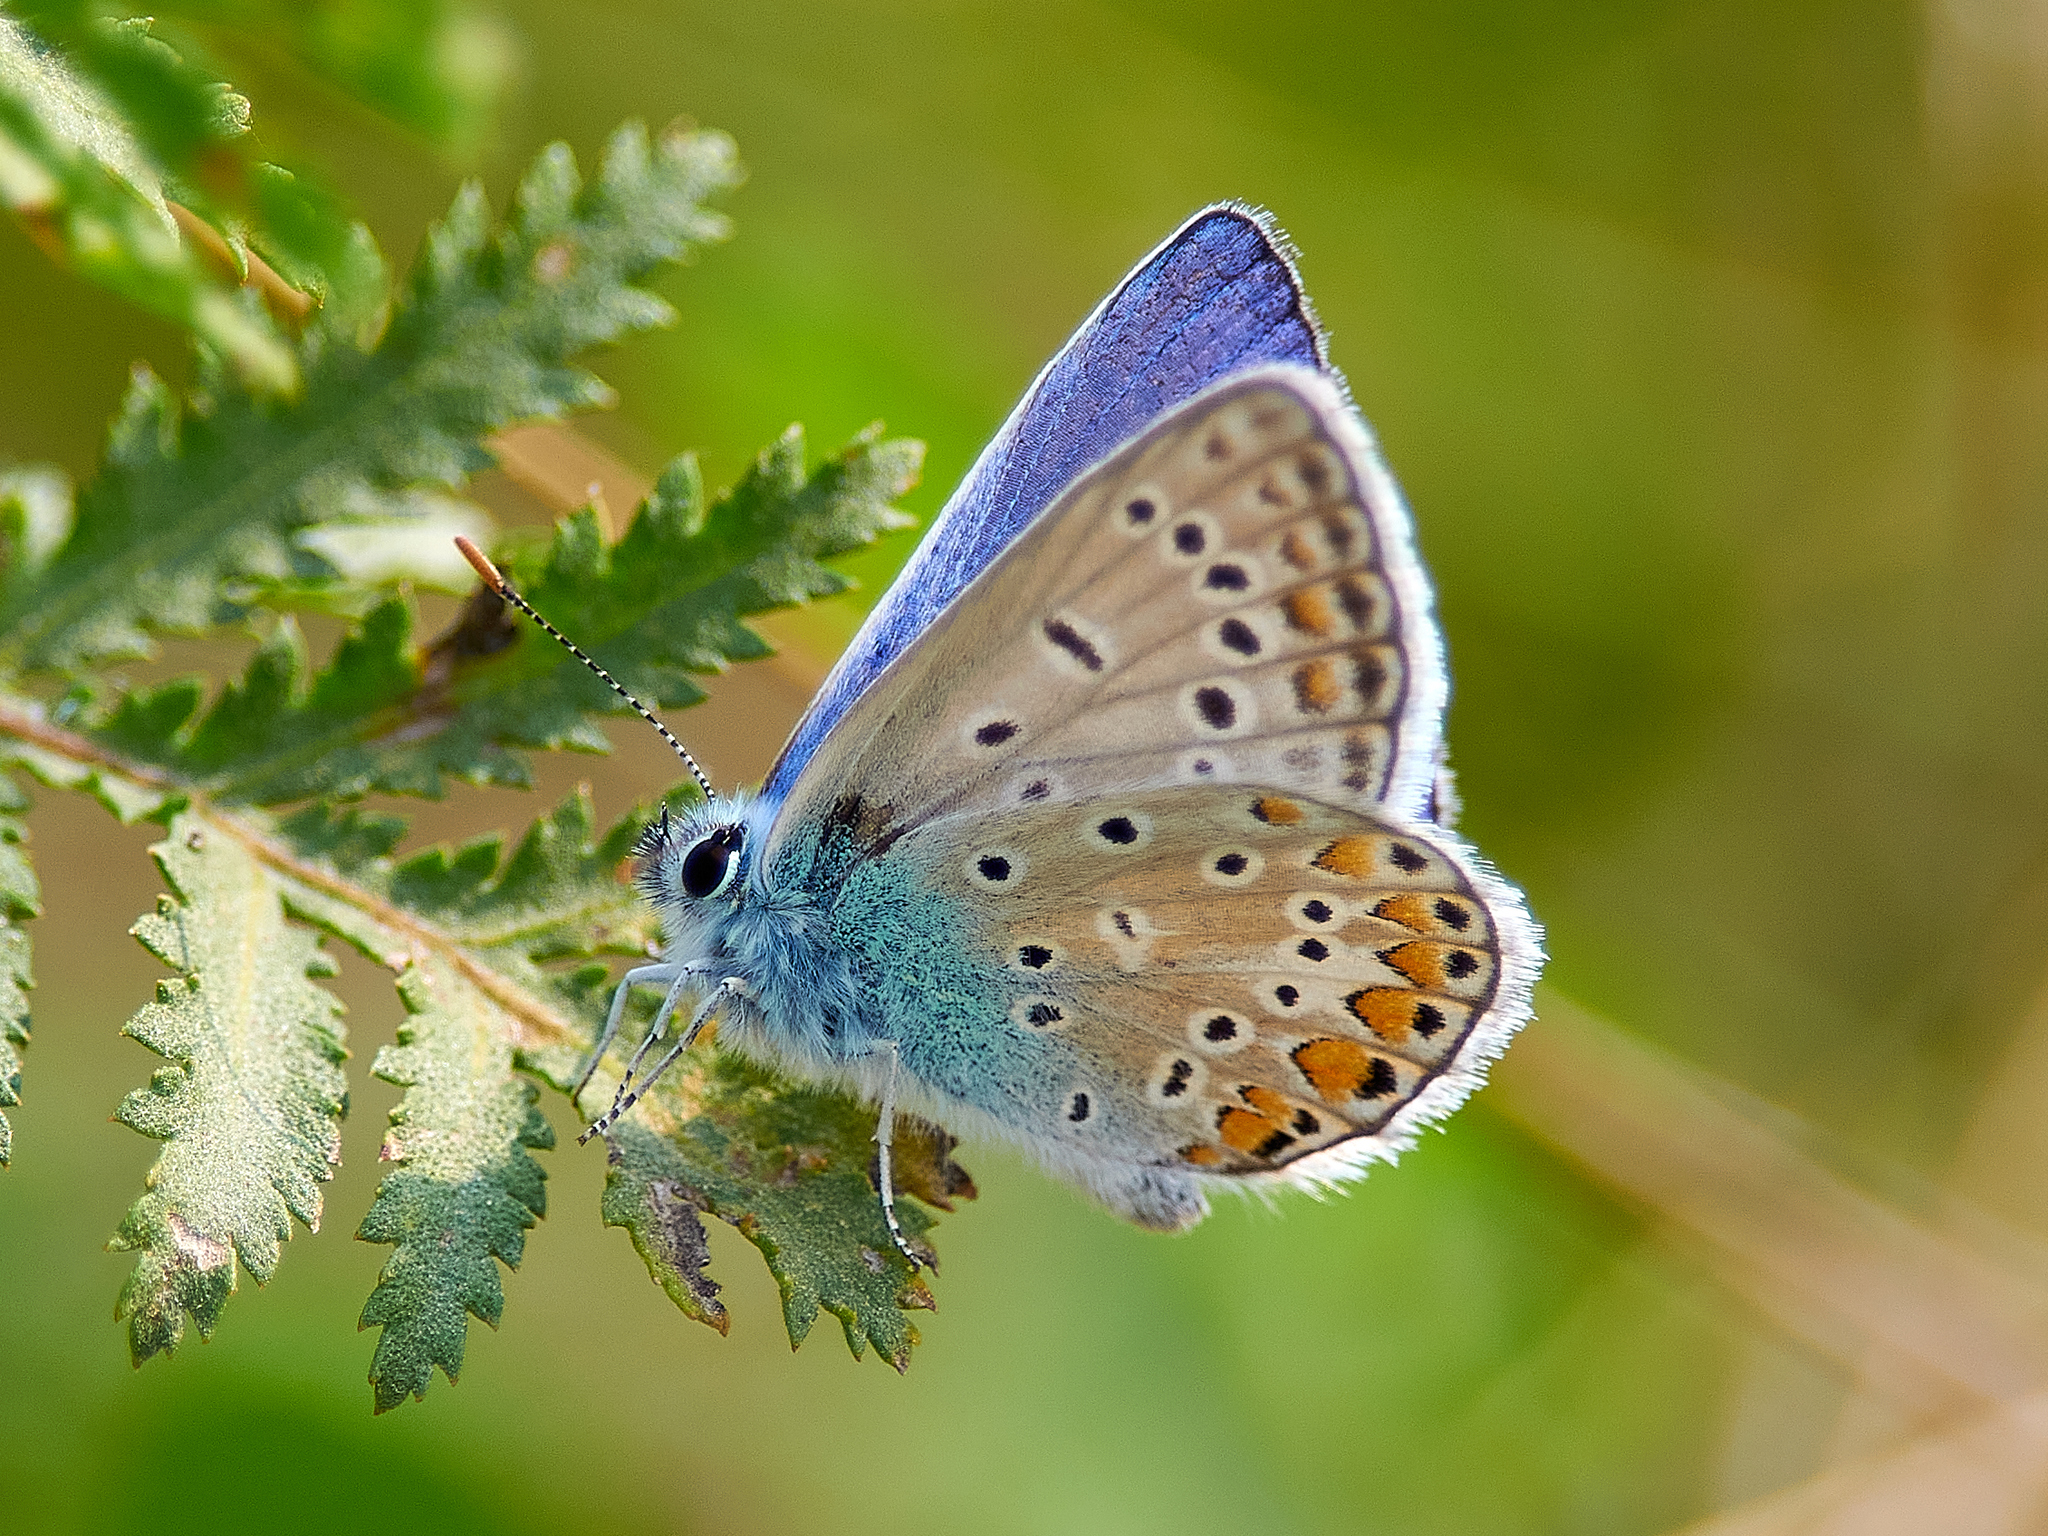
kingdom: Animalia
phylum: Arthropoda
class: Insecta
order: Lepidoptera
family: Lycaenidae
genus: Polyommatus
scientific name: Polyommatus icarus
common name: Common blue
